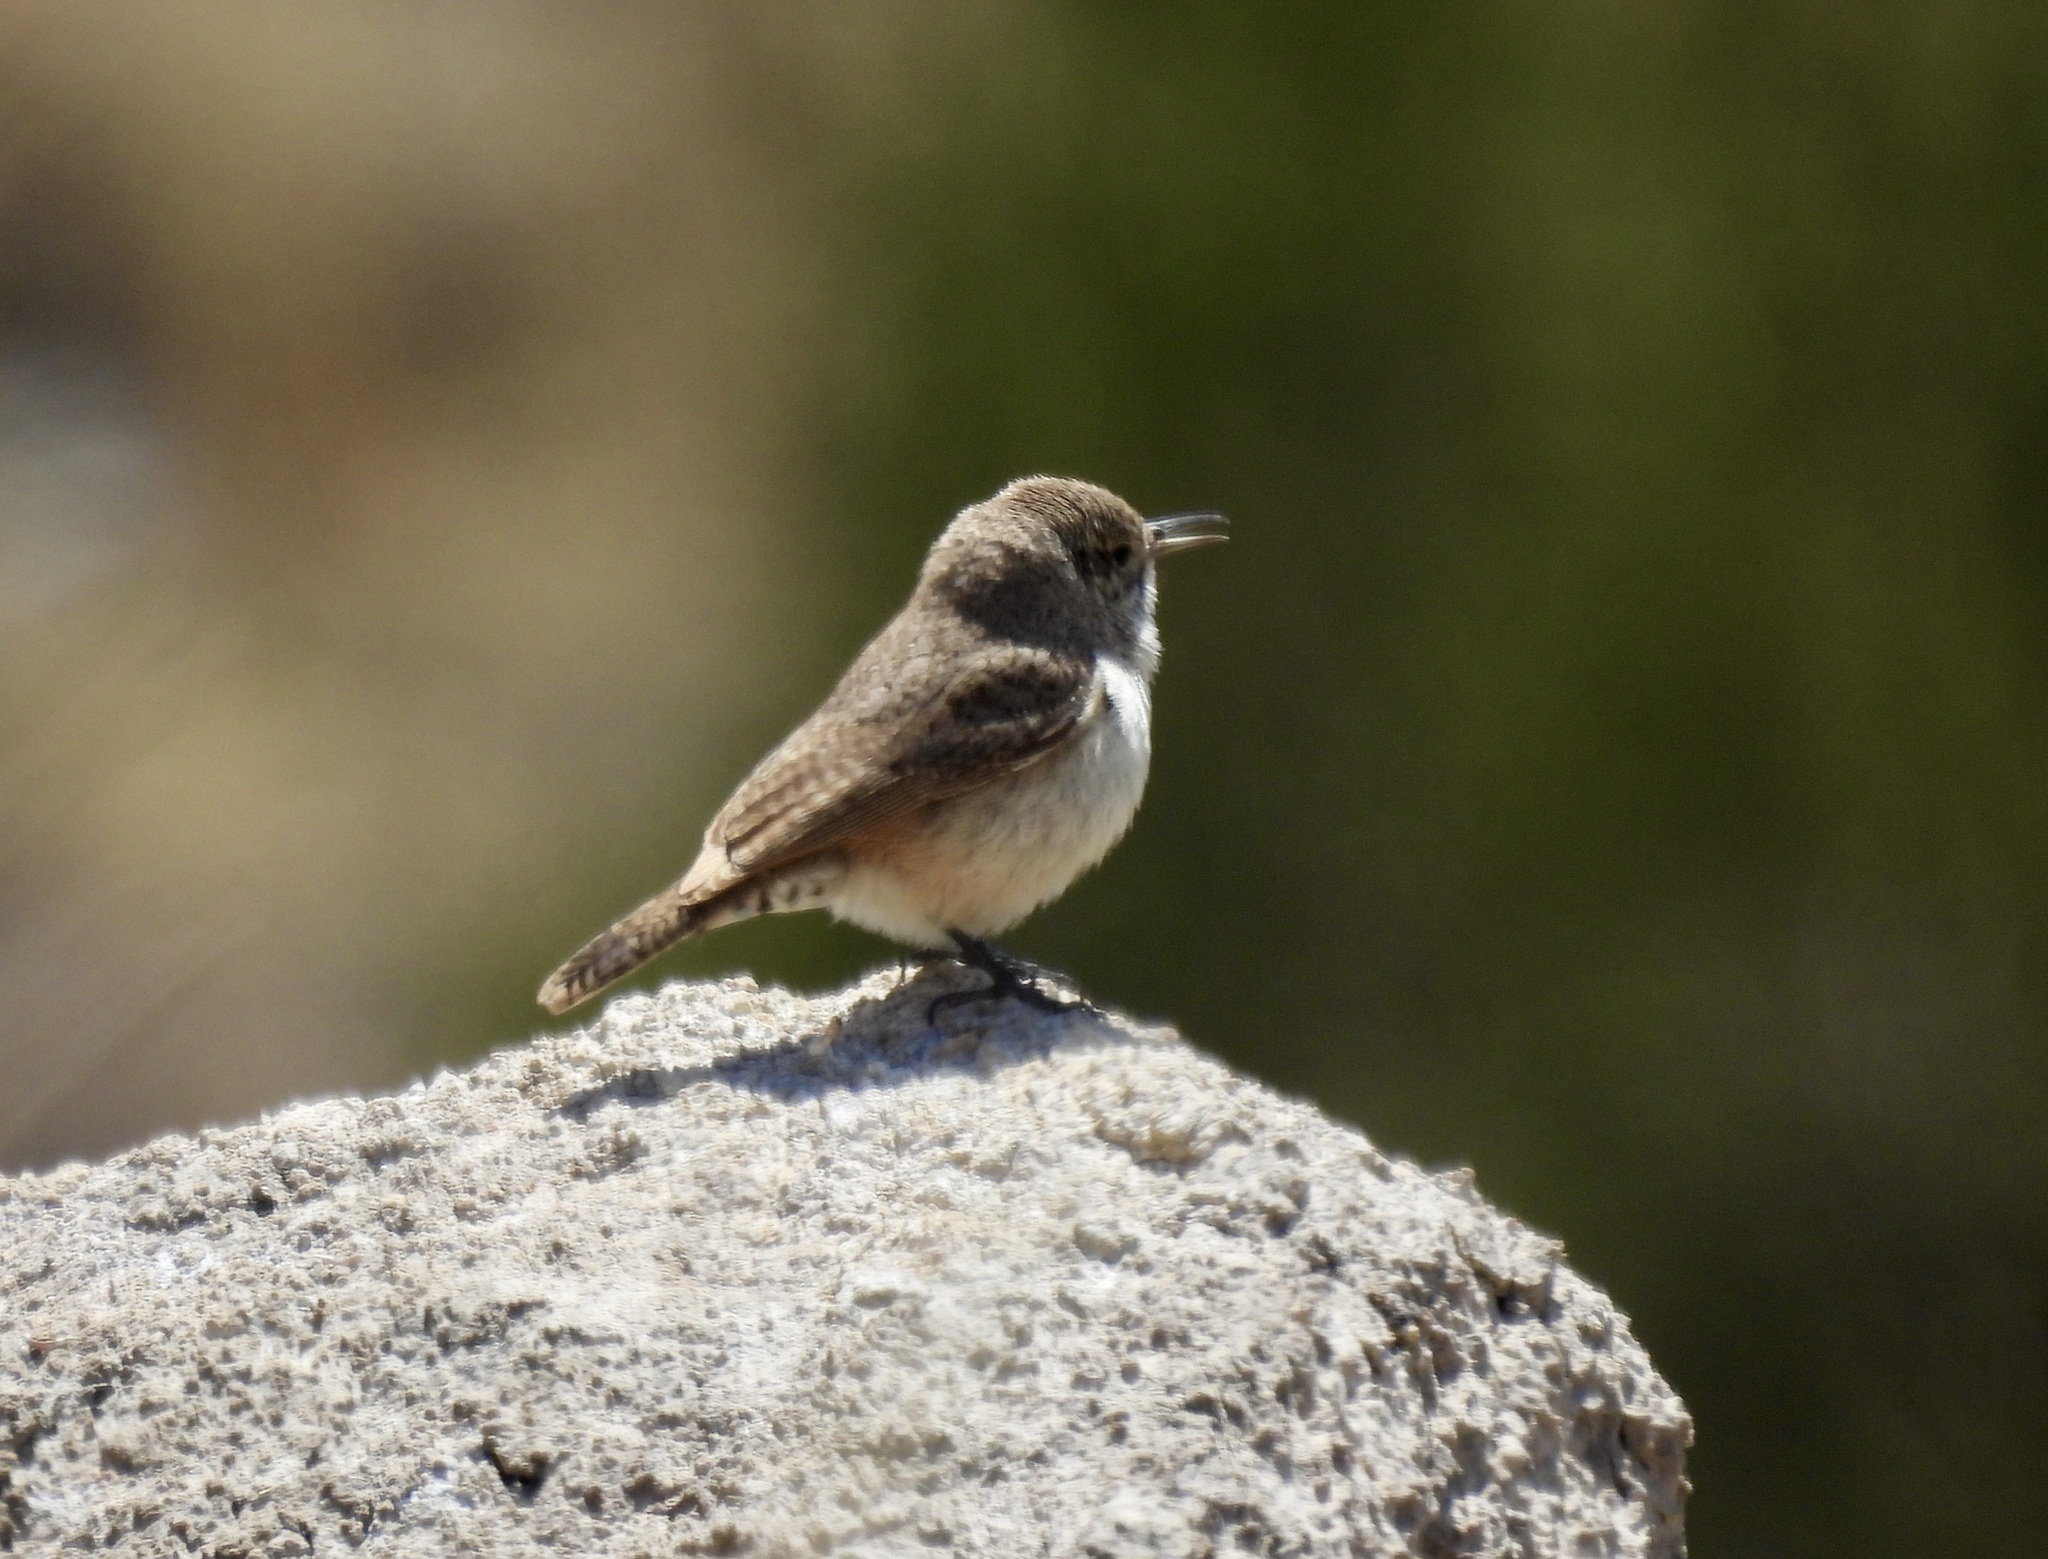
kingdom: Animalia
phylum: Chordata
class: Aves
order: Passeriformes
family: Troglodytidae
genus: Salpinctes
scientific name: Salpinctes obsoletus
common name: Rock wren
